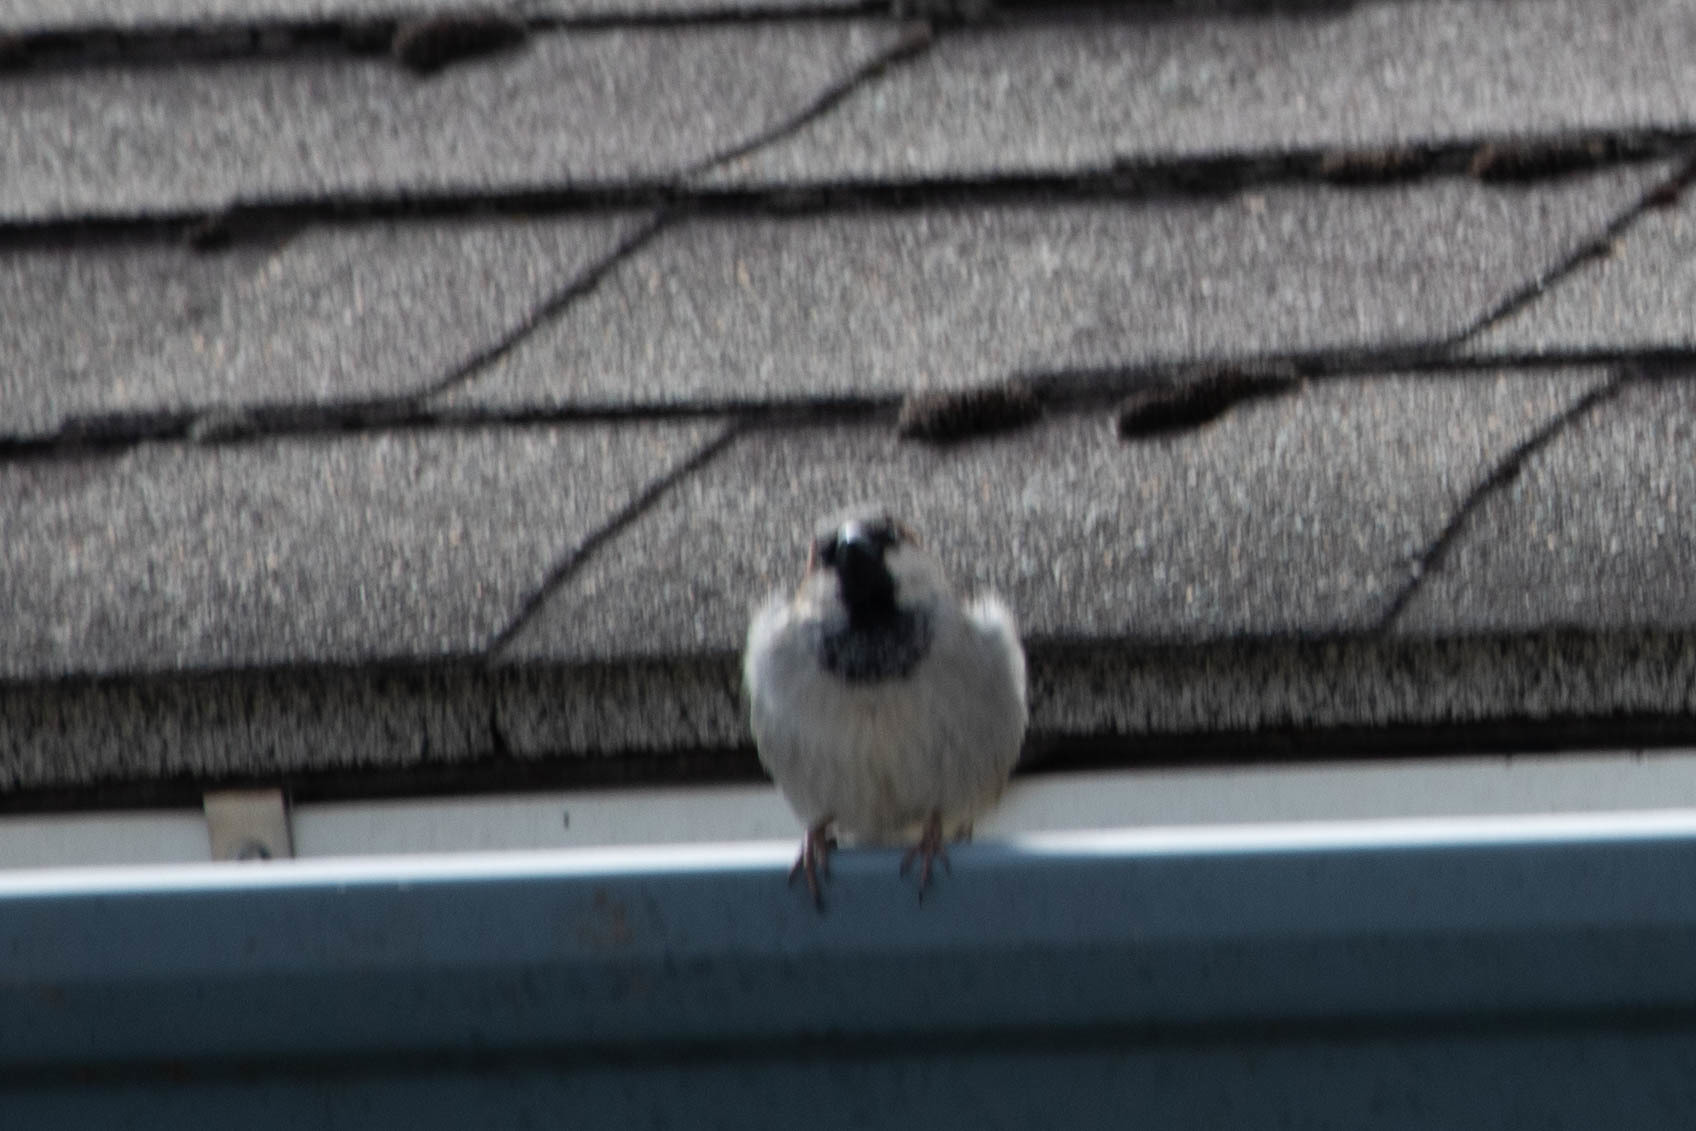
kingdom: Animalia
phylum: Chordata
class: Aves
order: Passeriformes
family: Passeridae
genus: Passer
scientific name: Passer domesticus
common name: House sparrow
